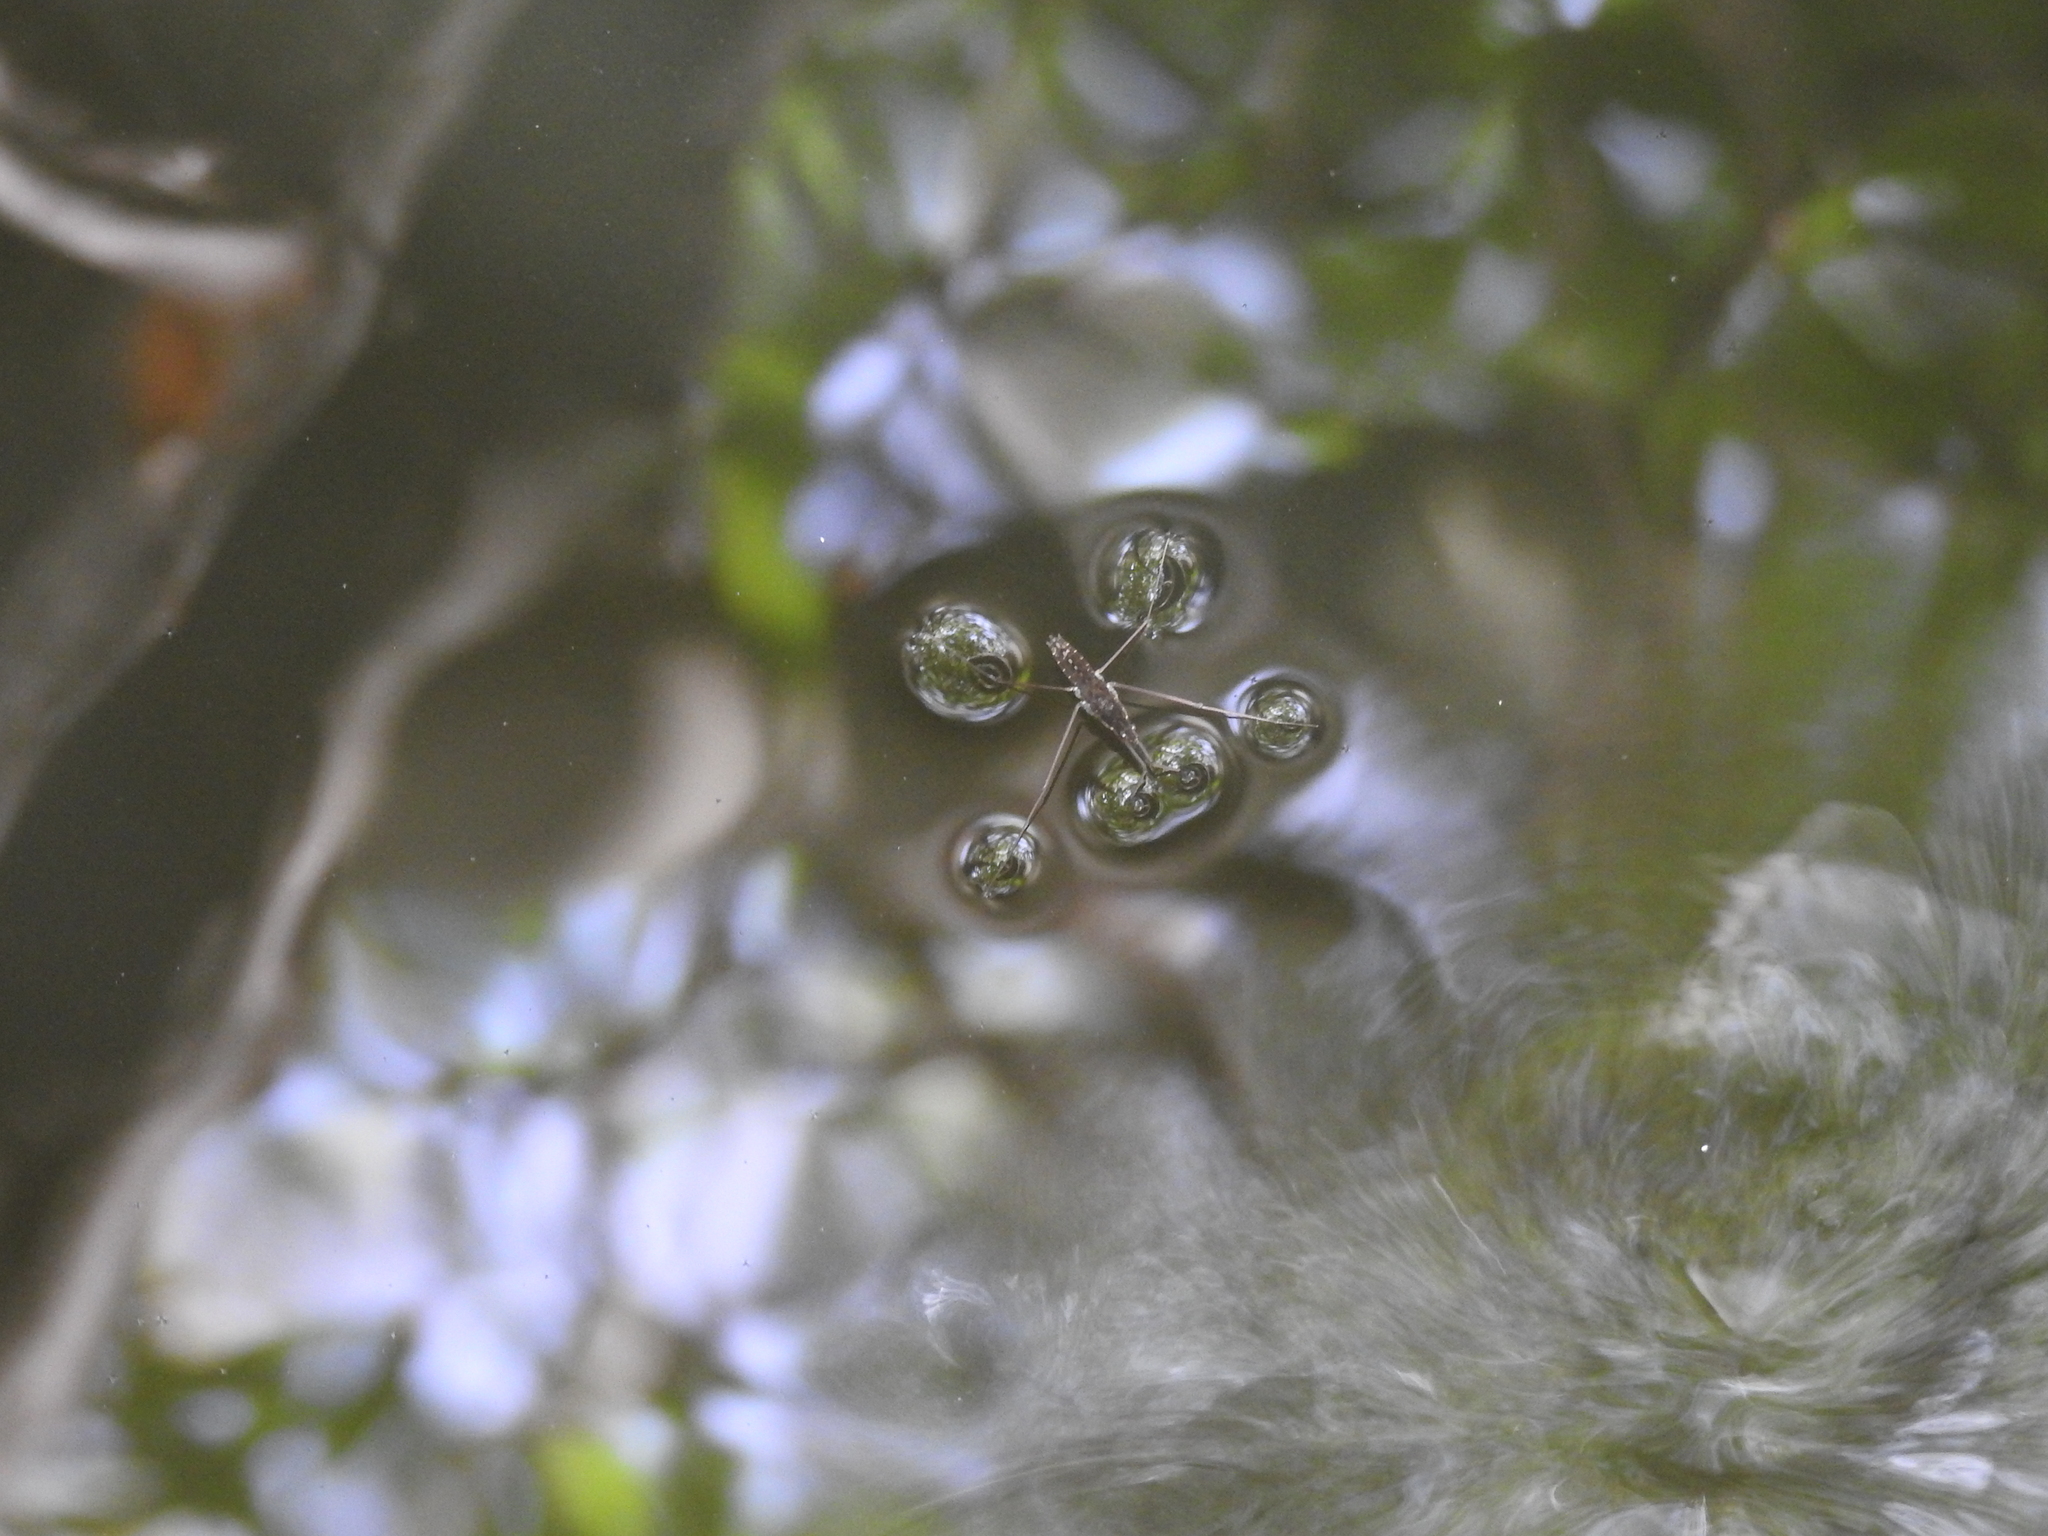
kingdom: Animalia
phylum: Arthropoda
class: Insecta
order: Hemiptera
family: Gerridae
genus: Aquarius
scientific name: Aquarius remigis
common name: Common water strider
